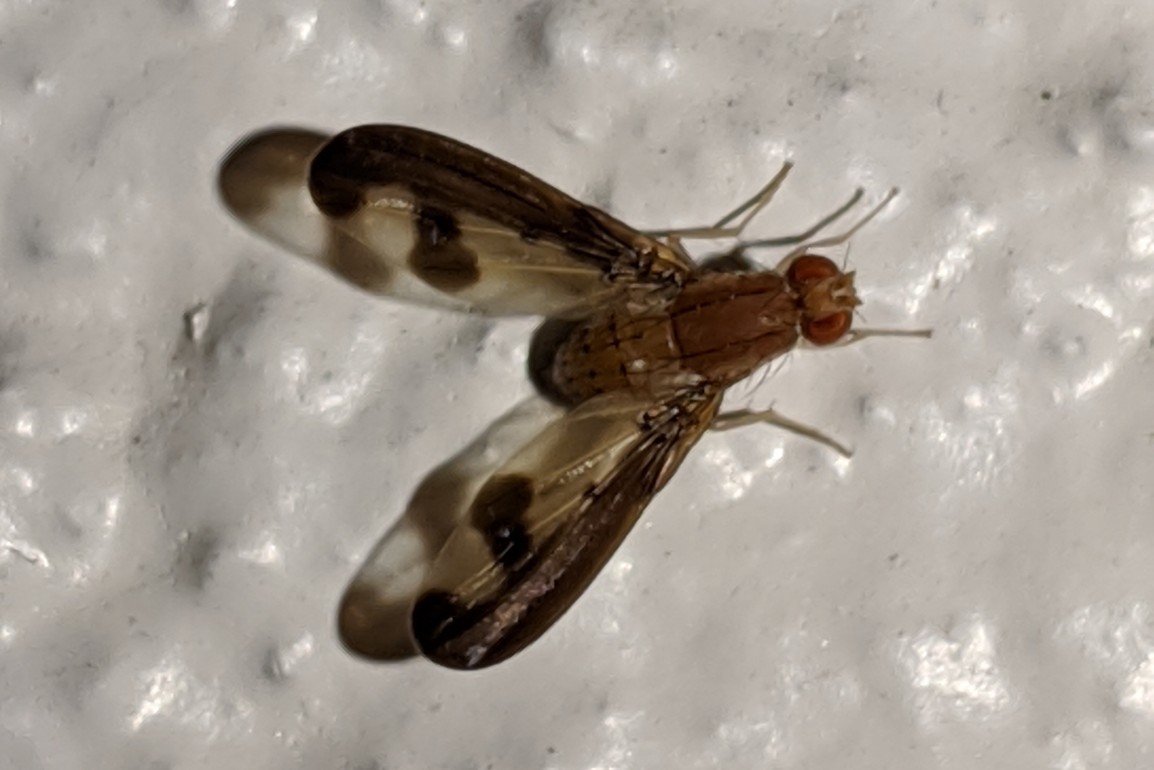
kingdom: Animalia
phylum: Arthropoda
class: Insecta
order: Diptera
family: Pallopteridae
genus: Toxonevra
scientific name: Toxonevra superba
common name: Antlered flutter fly
